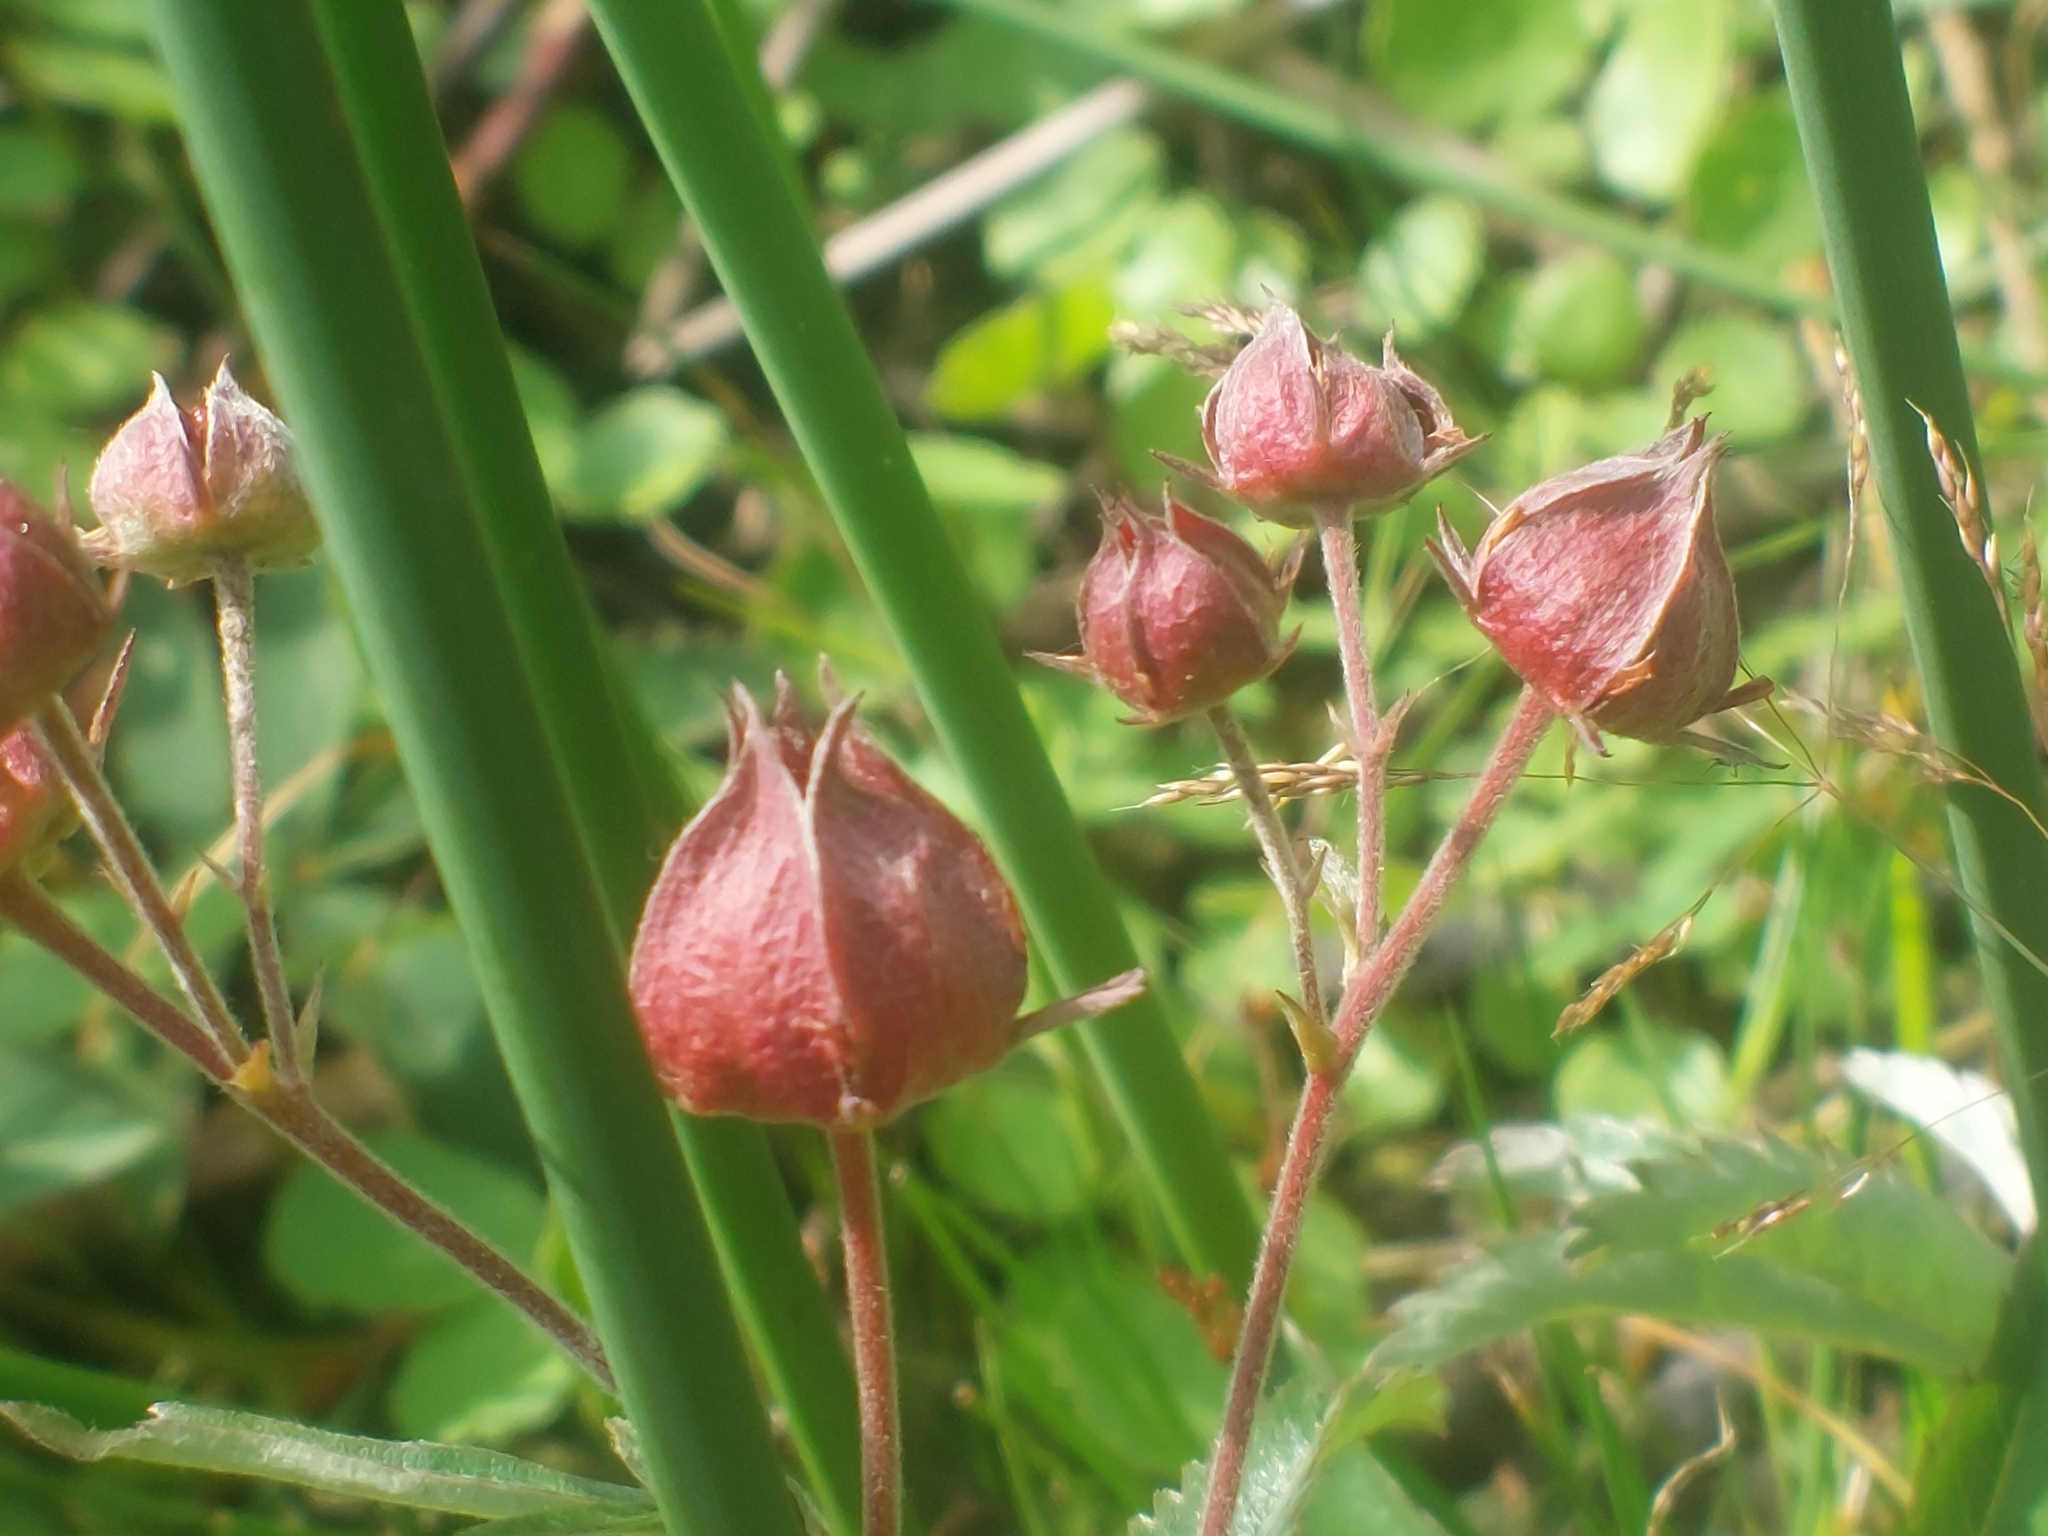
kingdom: Plantae
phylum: Tracheophyta
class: Magnoliopsida
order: Rosales
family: Rosaceae
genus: Comarum
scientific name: Comarum palustre
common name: Marsh cinquefoil
